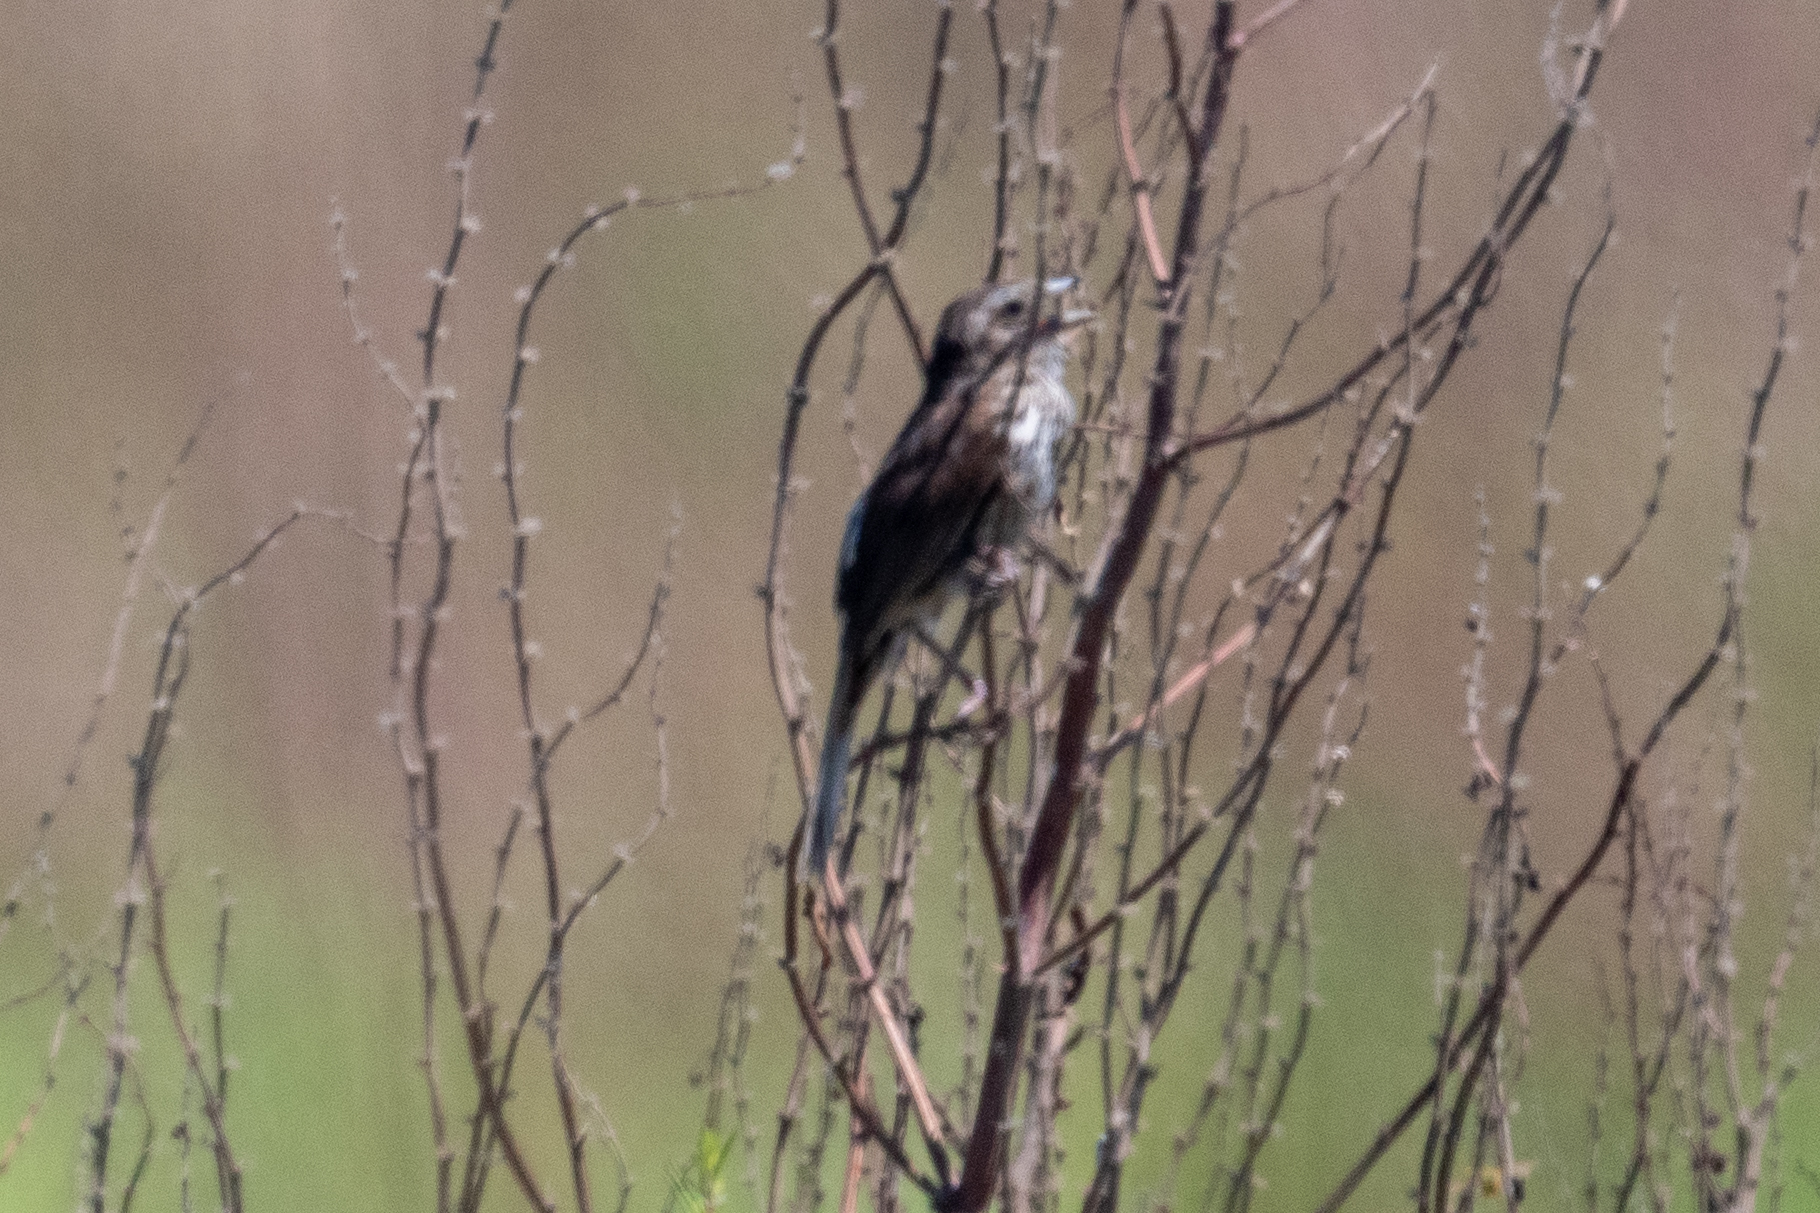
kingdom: Animalia
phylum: Chordata
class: Aves
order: Passeriformes
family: Passerellidae
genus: Melospiza
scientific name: Melospiza melodia
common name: Song sparrow
